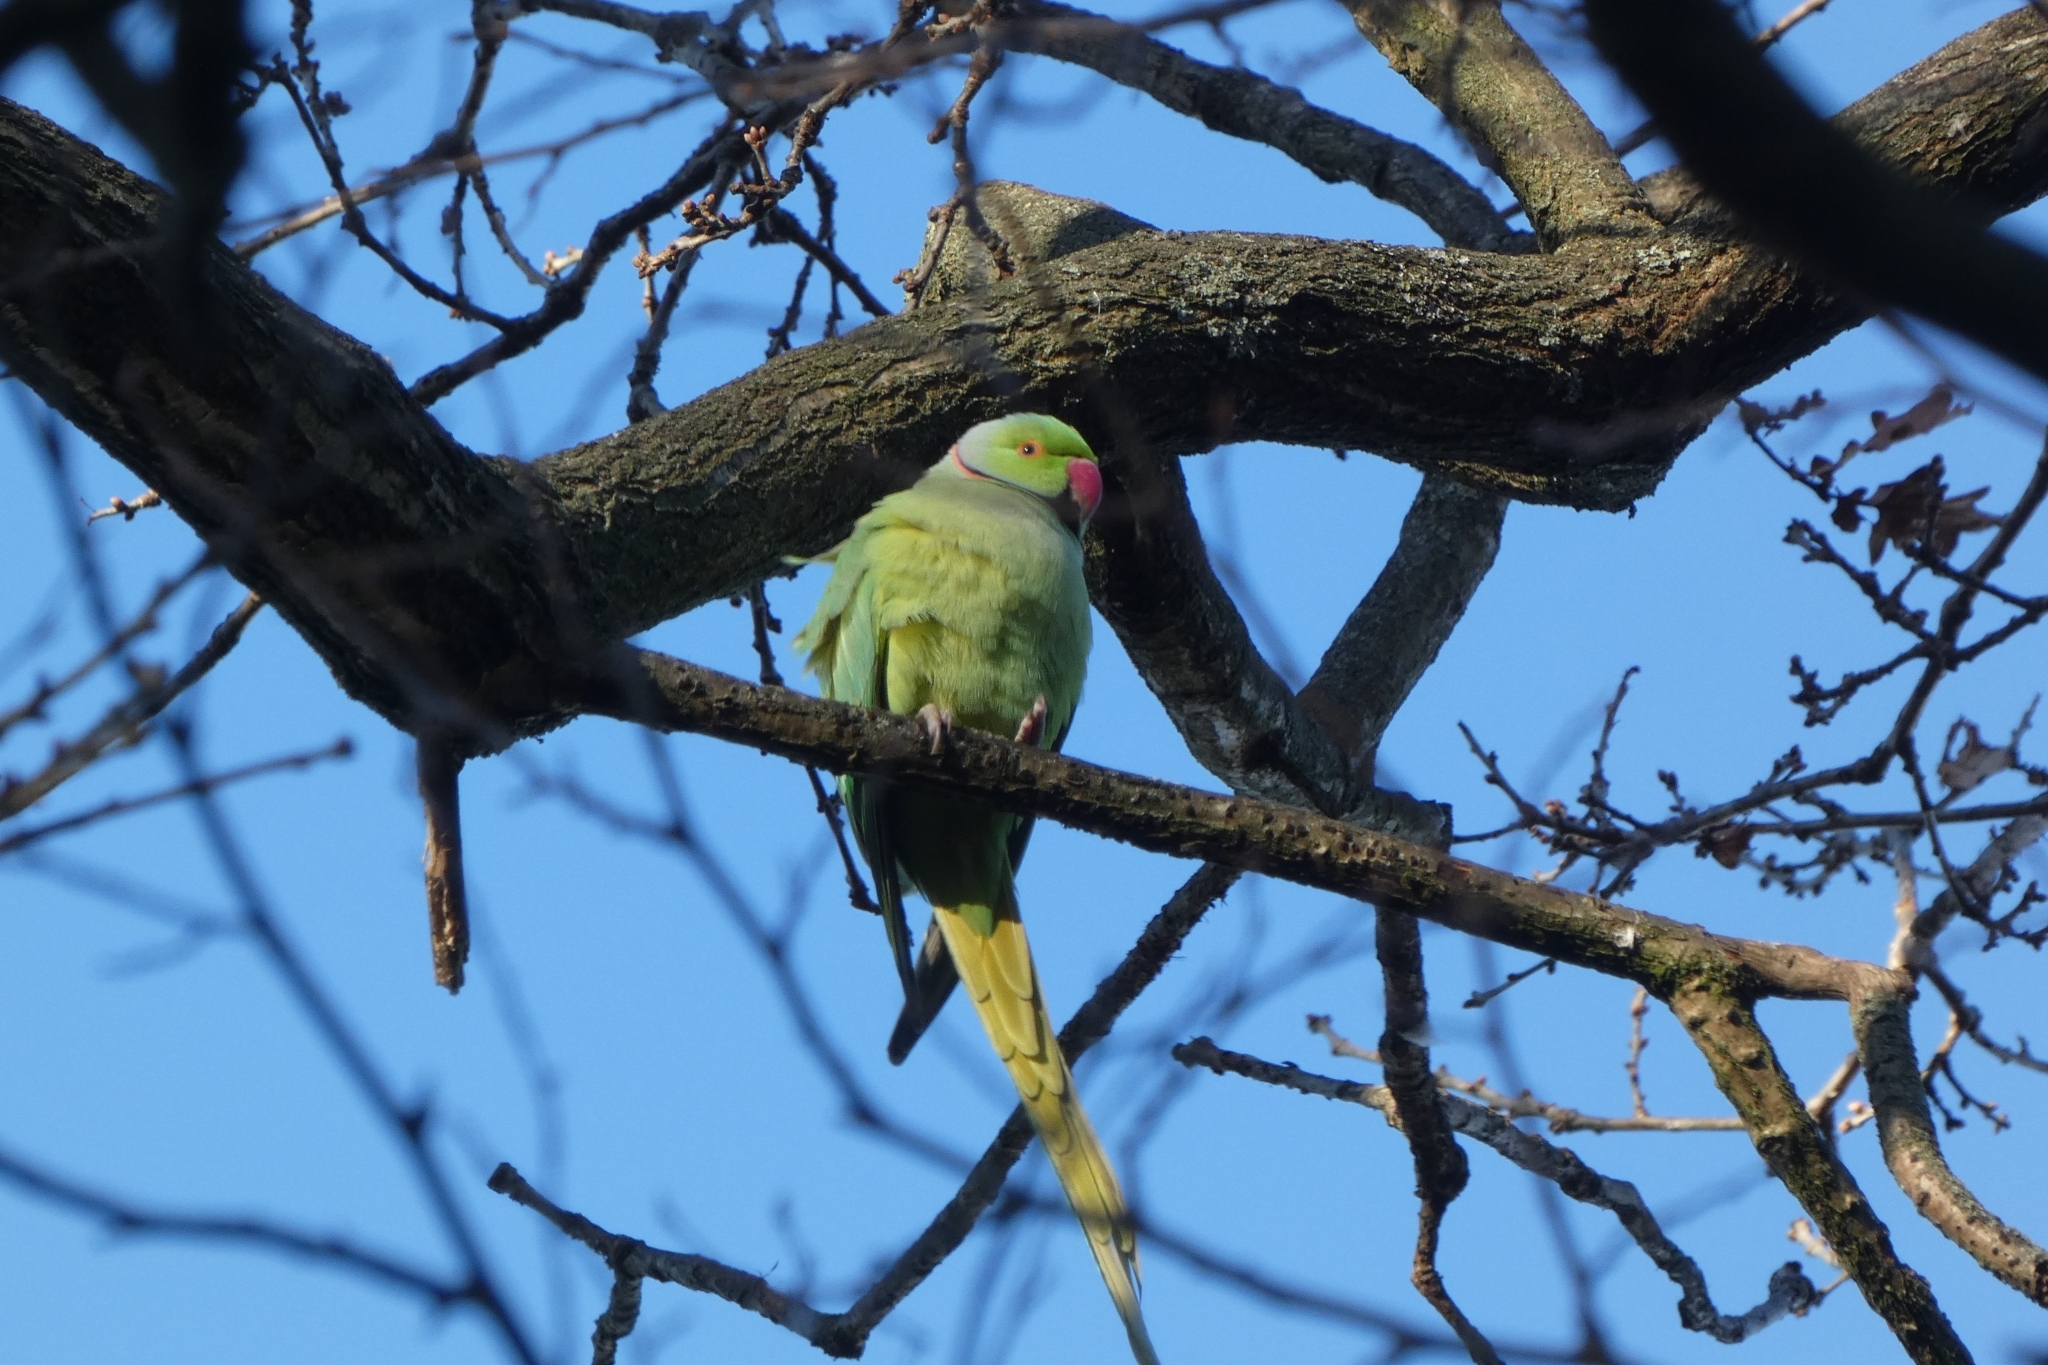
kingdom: Animalia
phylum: Chordata
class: Aves
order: Psittaciformes
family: Psittacidae
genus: Psittacula
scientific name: Psittacula krameri
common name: Rose-ringed parakeet
